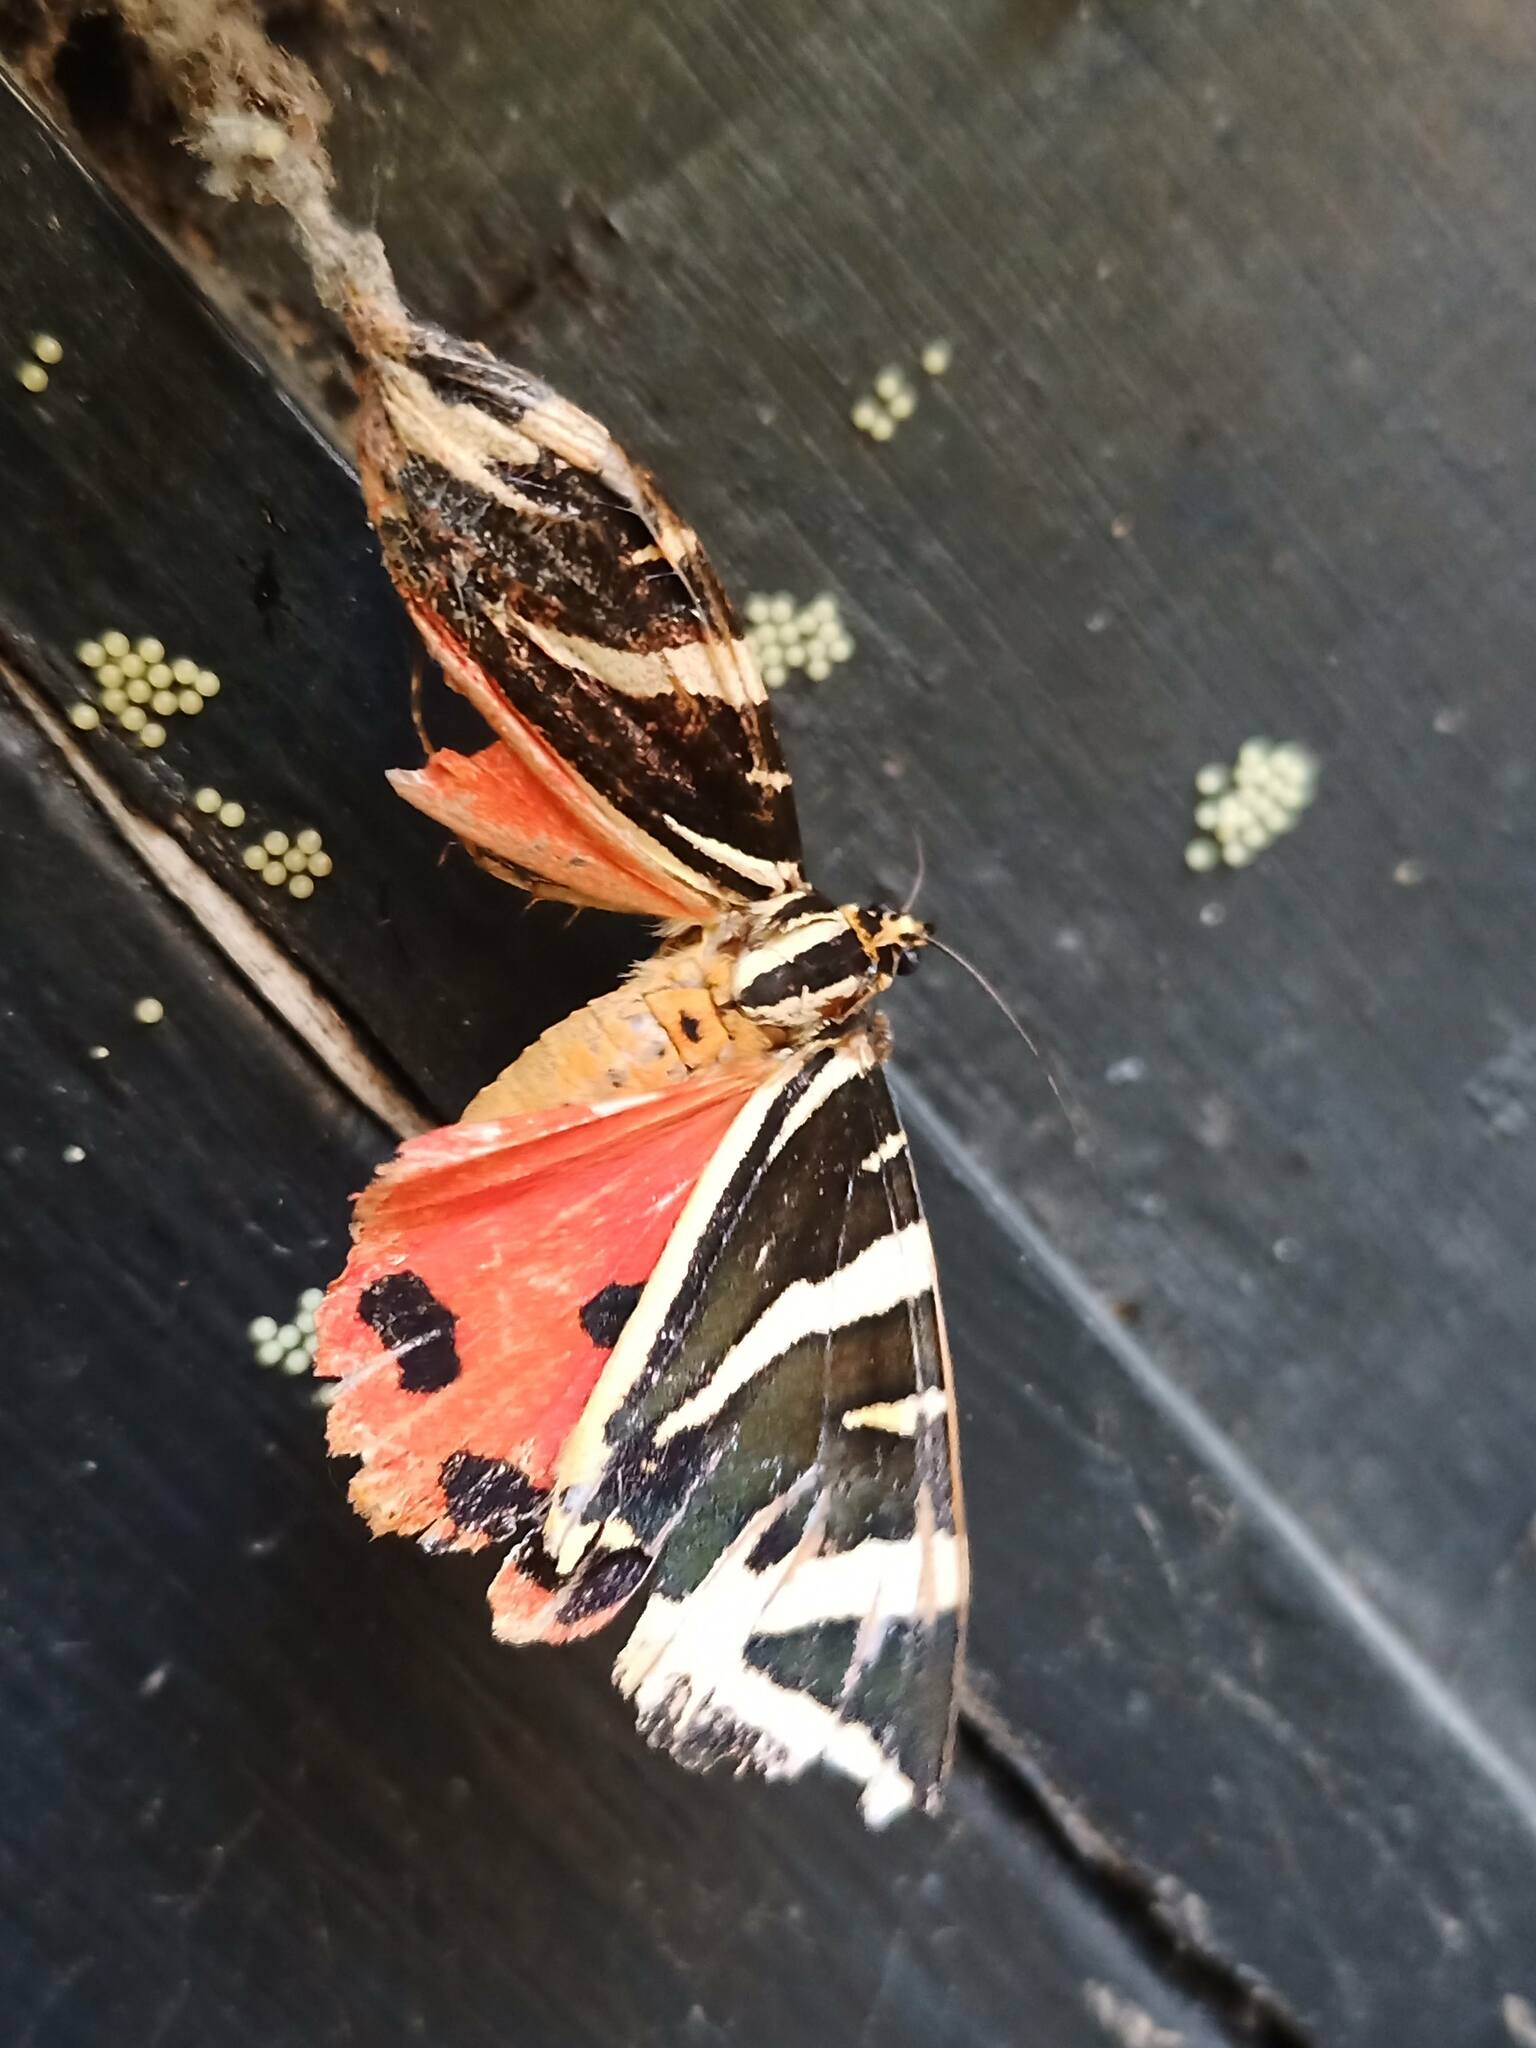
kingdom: Animalia
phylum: Arthropoda
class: Insecta
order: Lepidoptera
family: Erebidae
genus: Euplagia
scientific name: Euplagia quadripunctaria
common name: Jersey tiger
